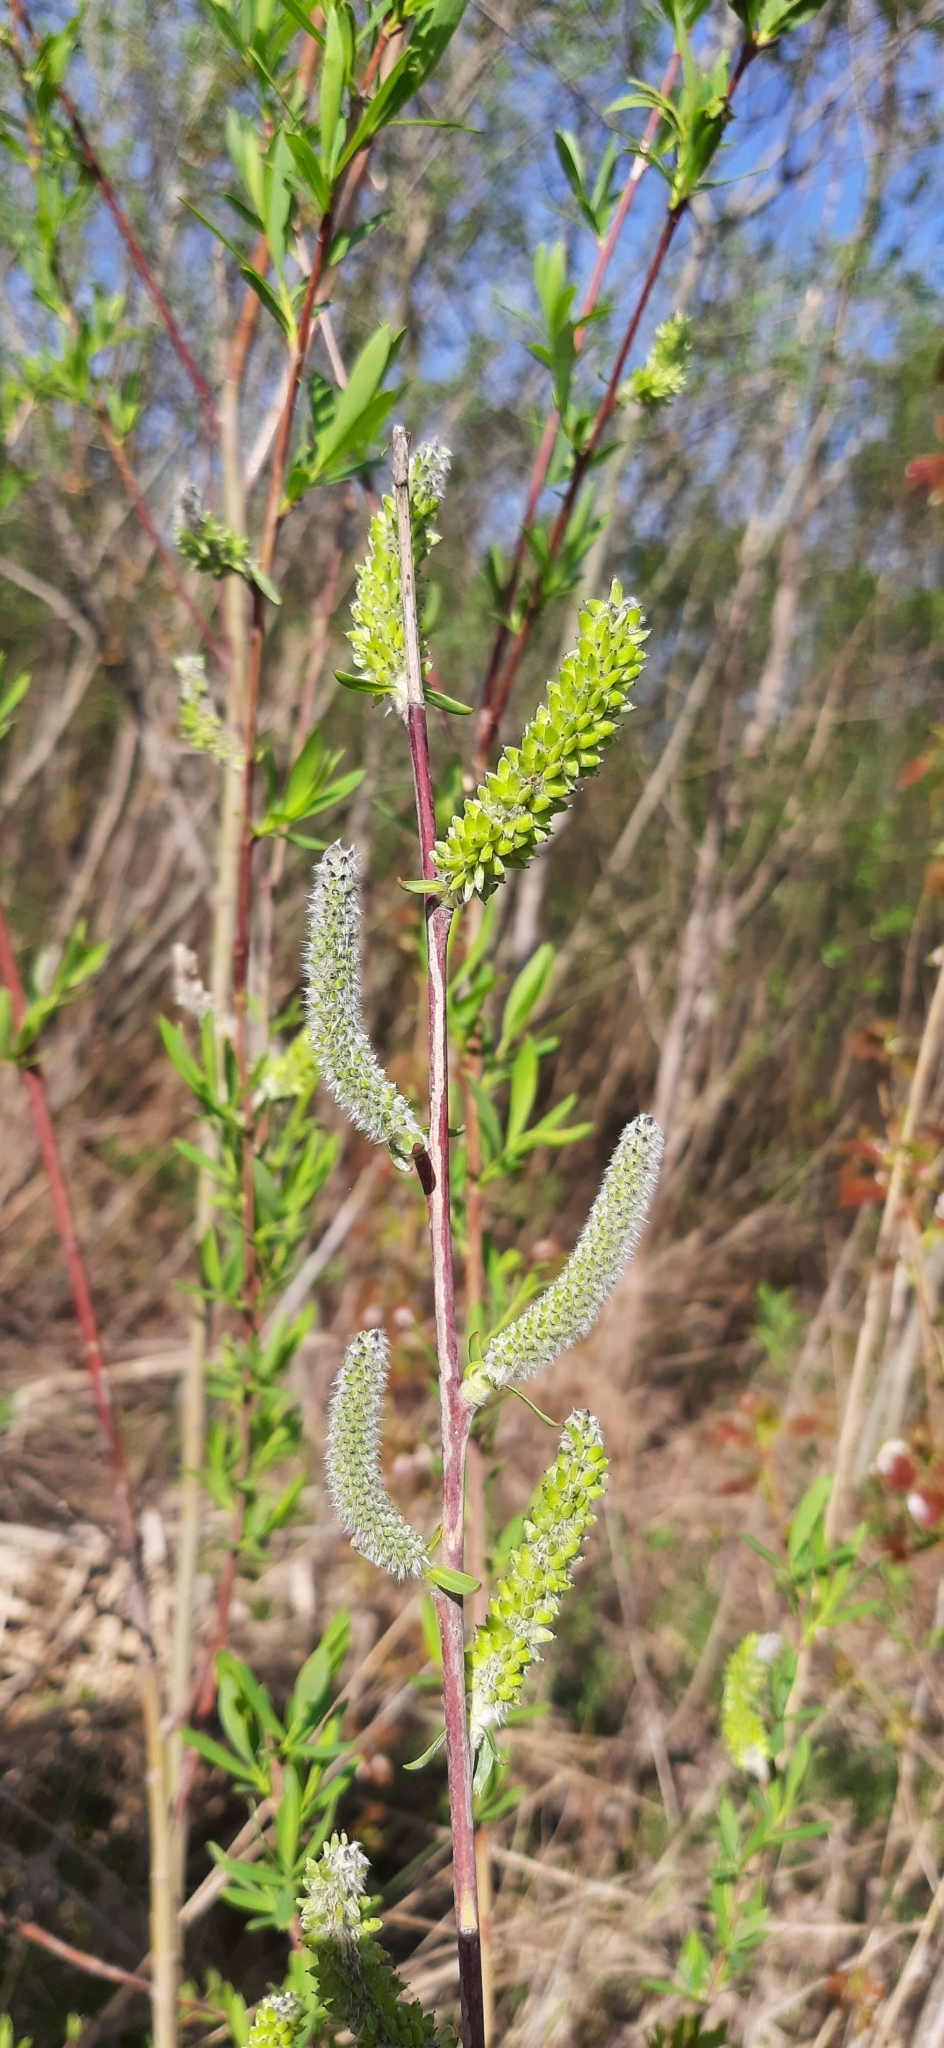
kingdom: Plantae
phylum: Tracheophyta
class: Magnoliopsida
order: Malpighiales
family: Salicaceae
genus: Salix
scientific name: Salix purpurea
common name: Purple willow
